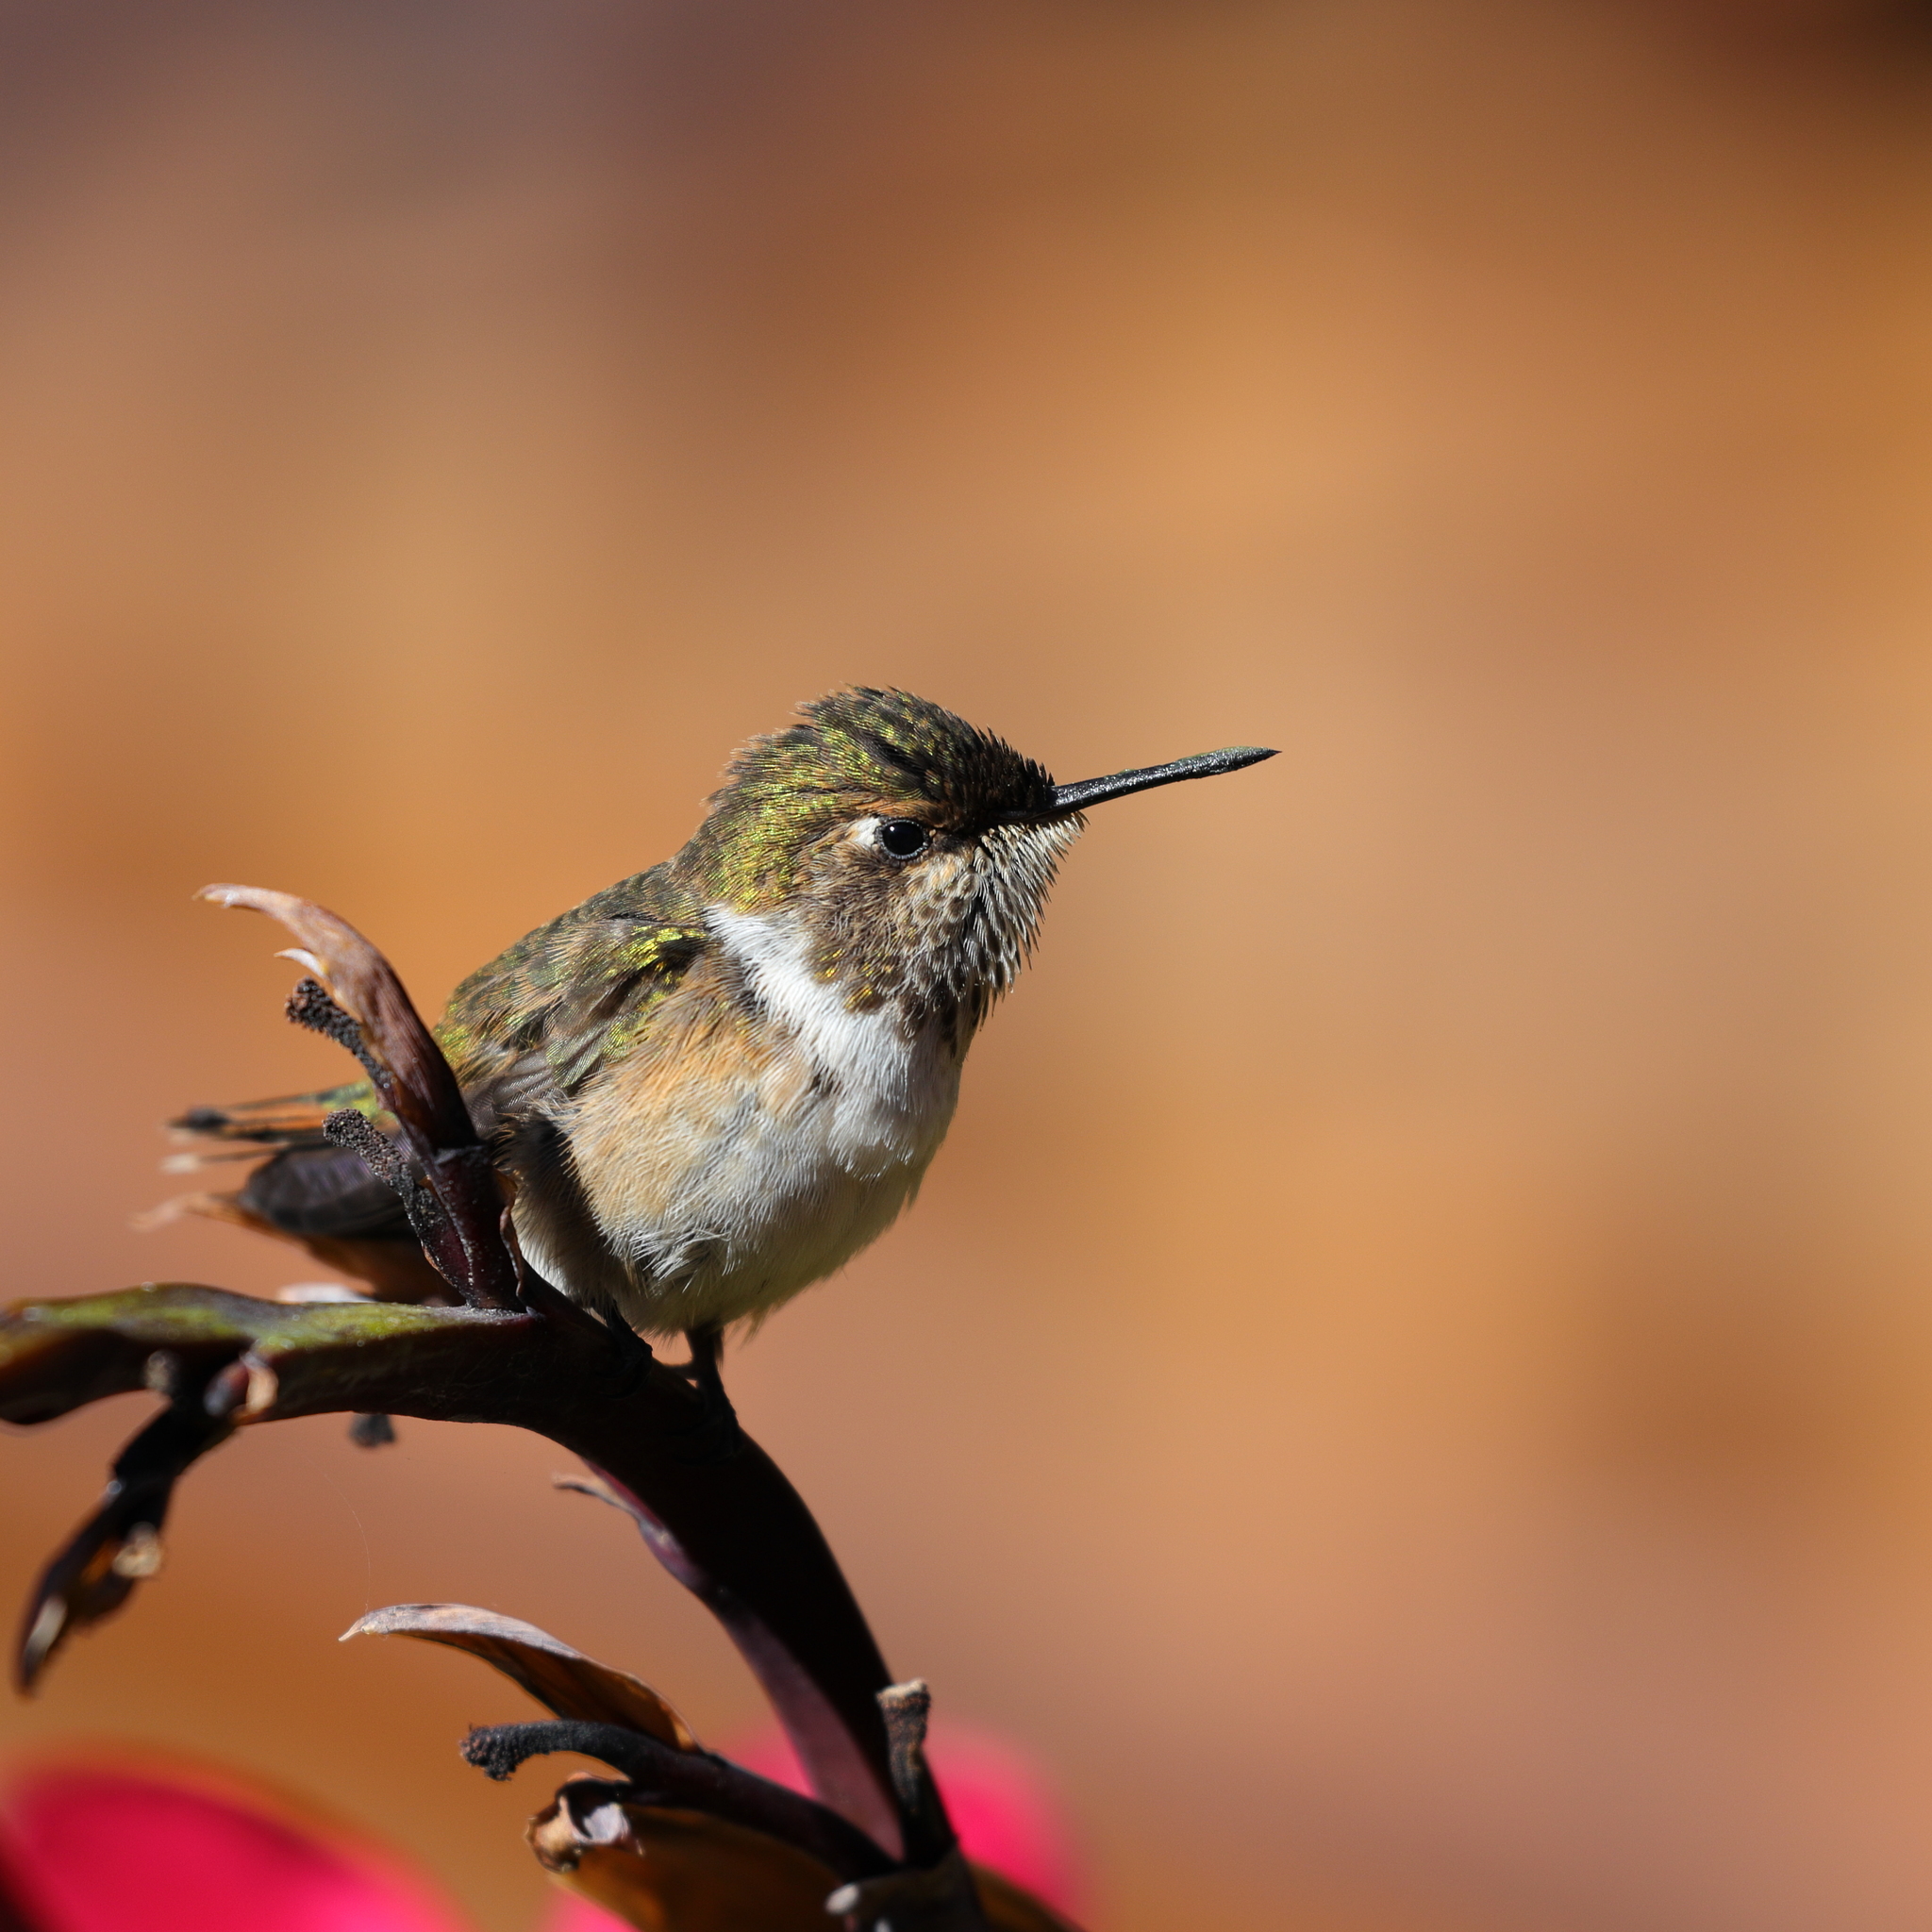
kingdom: Animalia
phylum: Chordata
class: Aves
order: Apodiformes
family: Trochilidae
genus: Selasphorus
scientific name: Selasphorus scintilla
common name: Scintillant hummingbird
